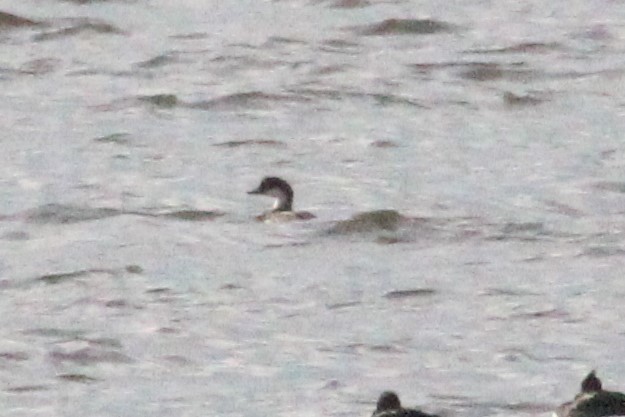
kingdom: Animalia
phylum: Chordata
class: Aves
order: Anseriformes
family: Anatidae
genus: Mergellus
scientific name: Mergellus albellus
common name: Smew
